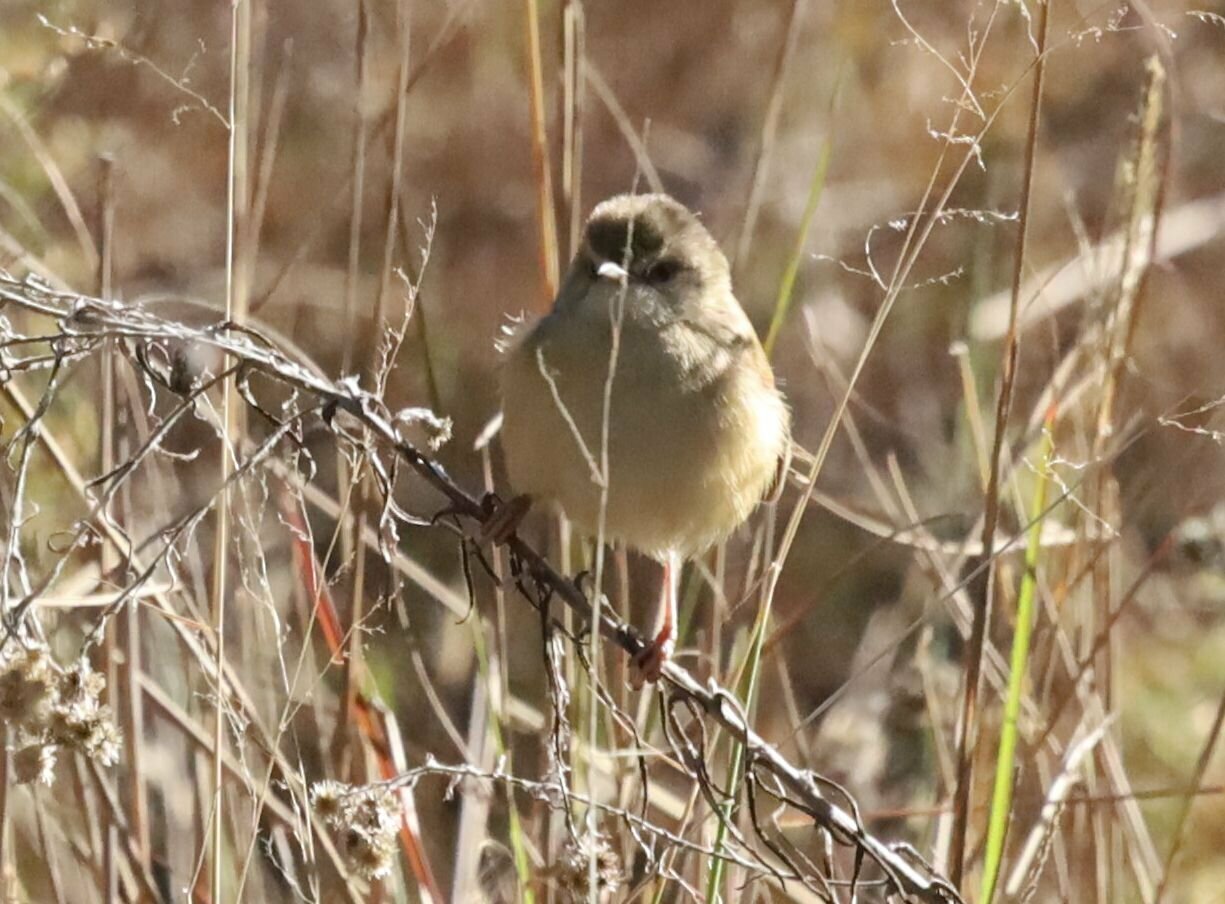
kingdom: Animalia
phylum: Chordata
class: Aves
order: Passeriformes
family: Cisticolidae
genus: Prinia
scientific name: Prinia subflava
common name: Tawny-flanked prinia
